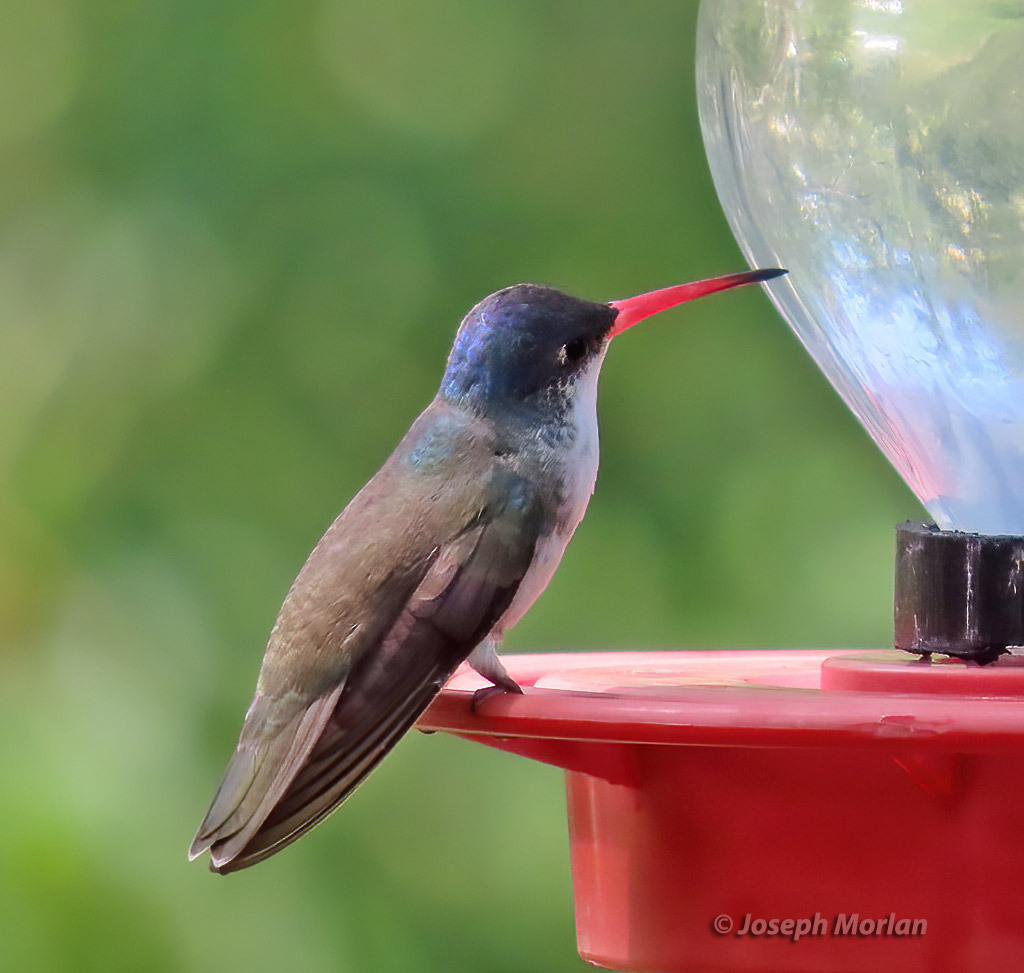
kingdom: Animalia
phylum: Chordata
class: Aves
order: Apodiformes
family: Trochilidae
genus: Leucolia
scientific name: Leucolia violiceps
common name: Violet-crowned hummingbird
